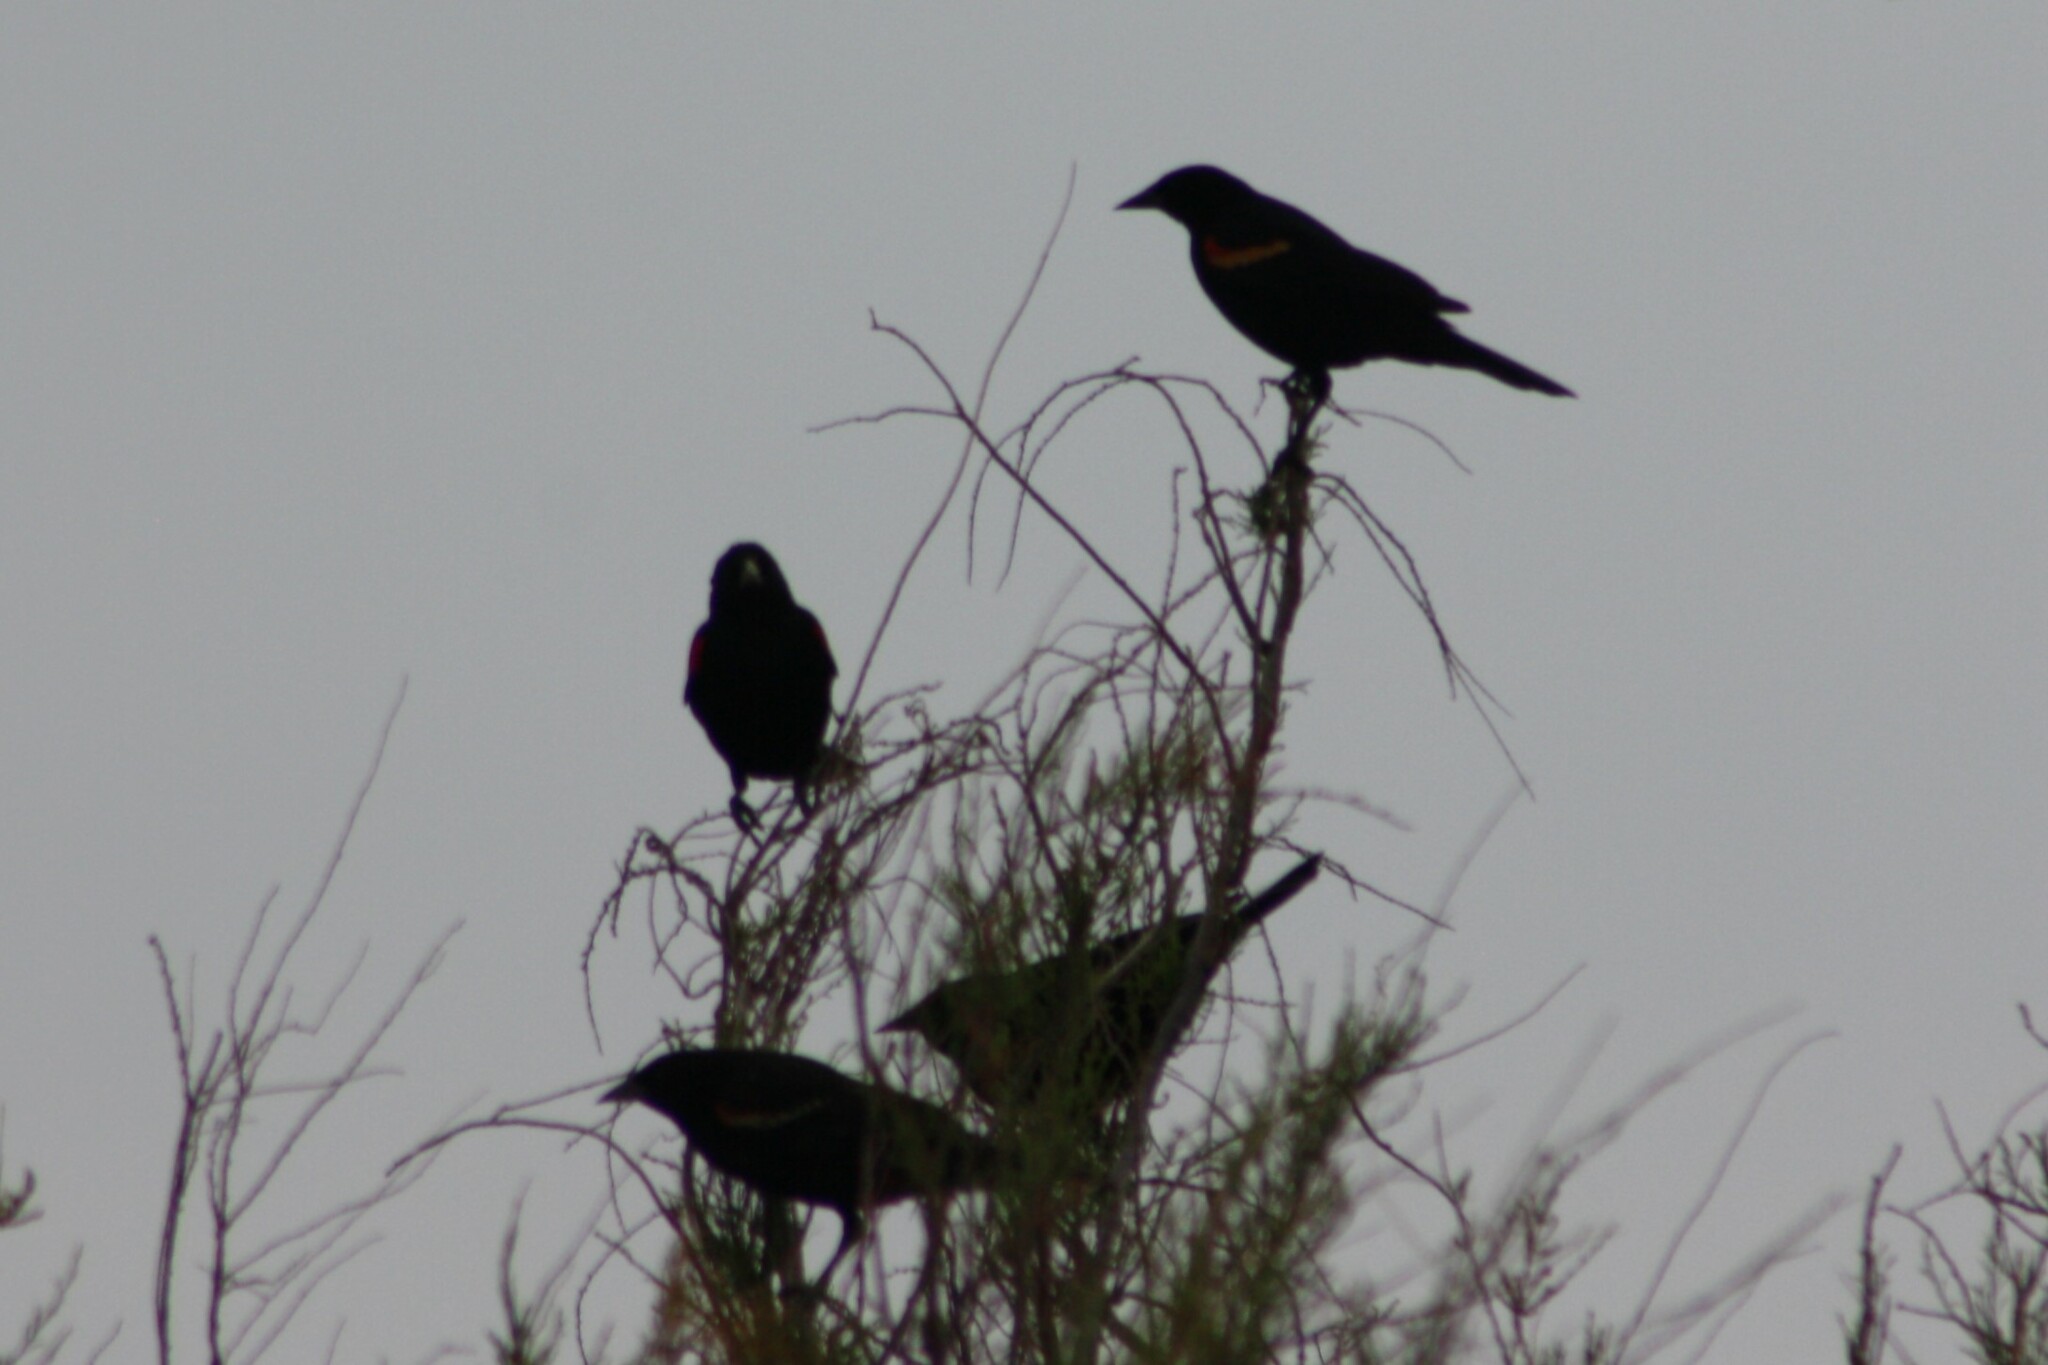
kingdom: Animalia
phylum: Chordata
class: Aves
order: Passeriformes
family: Icteridae
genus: Agelaius
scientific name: Agelaius phoeniceus
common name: Red-winged blackbird
